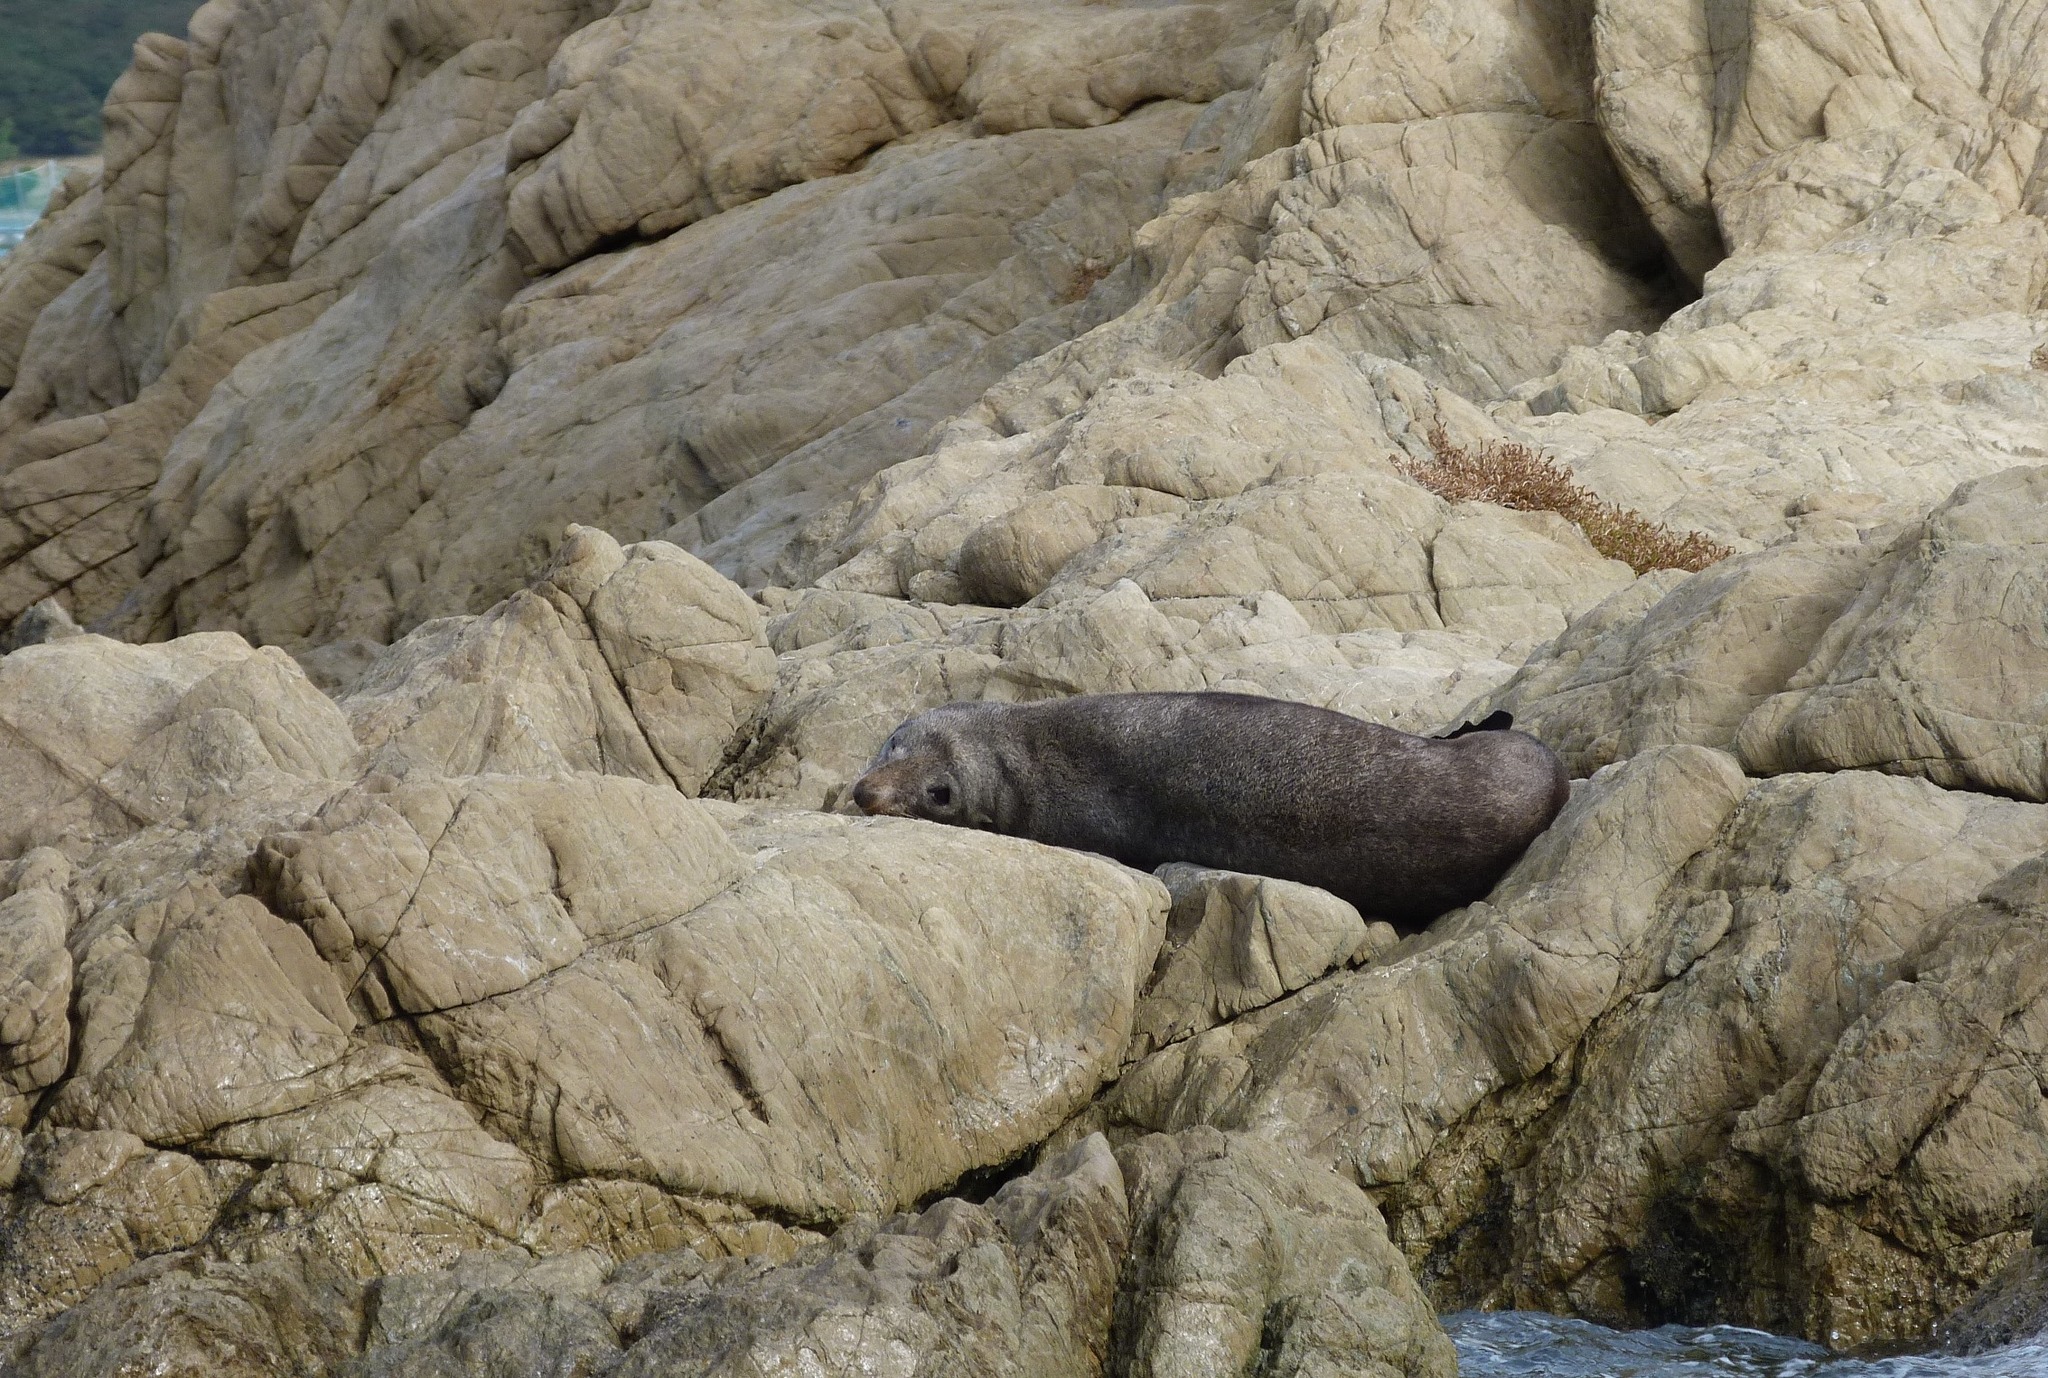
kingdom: Animalia
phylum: Chordata
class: Mammalia
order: Carnivora
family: Otariidae
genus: Arctocephalus
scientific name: Arctocephalus forsteri
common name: New zealand fur seal
